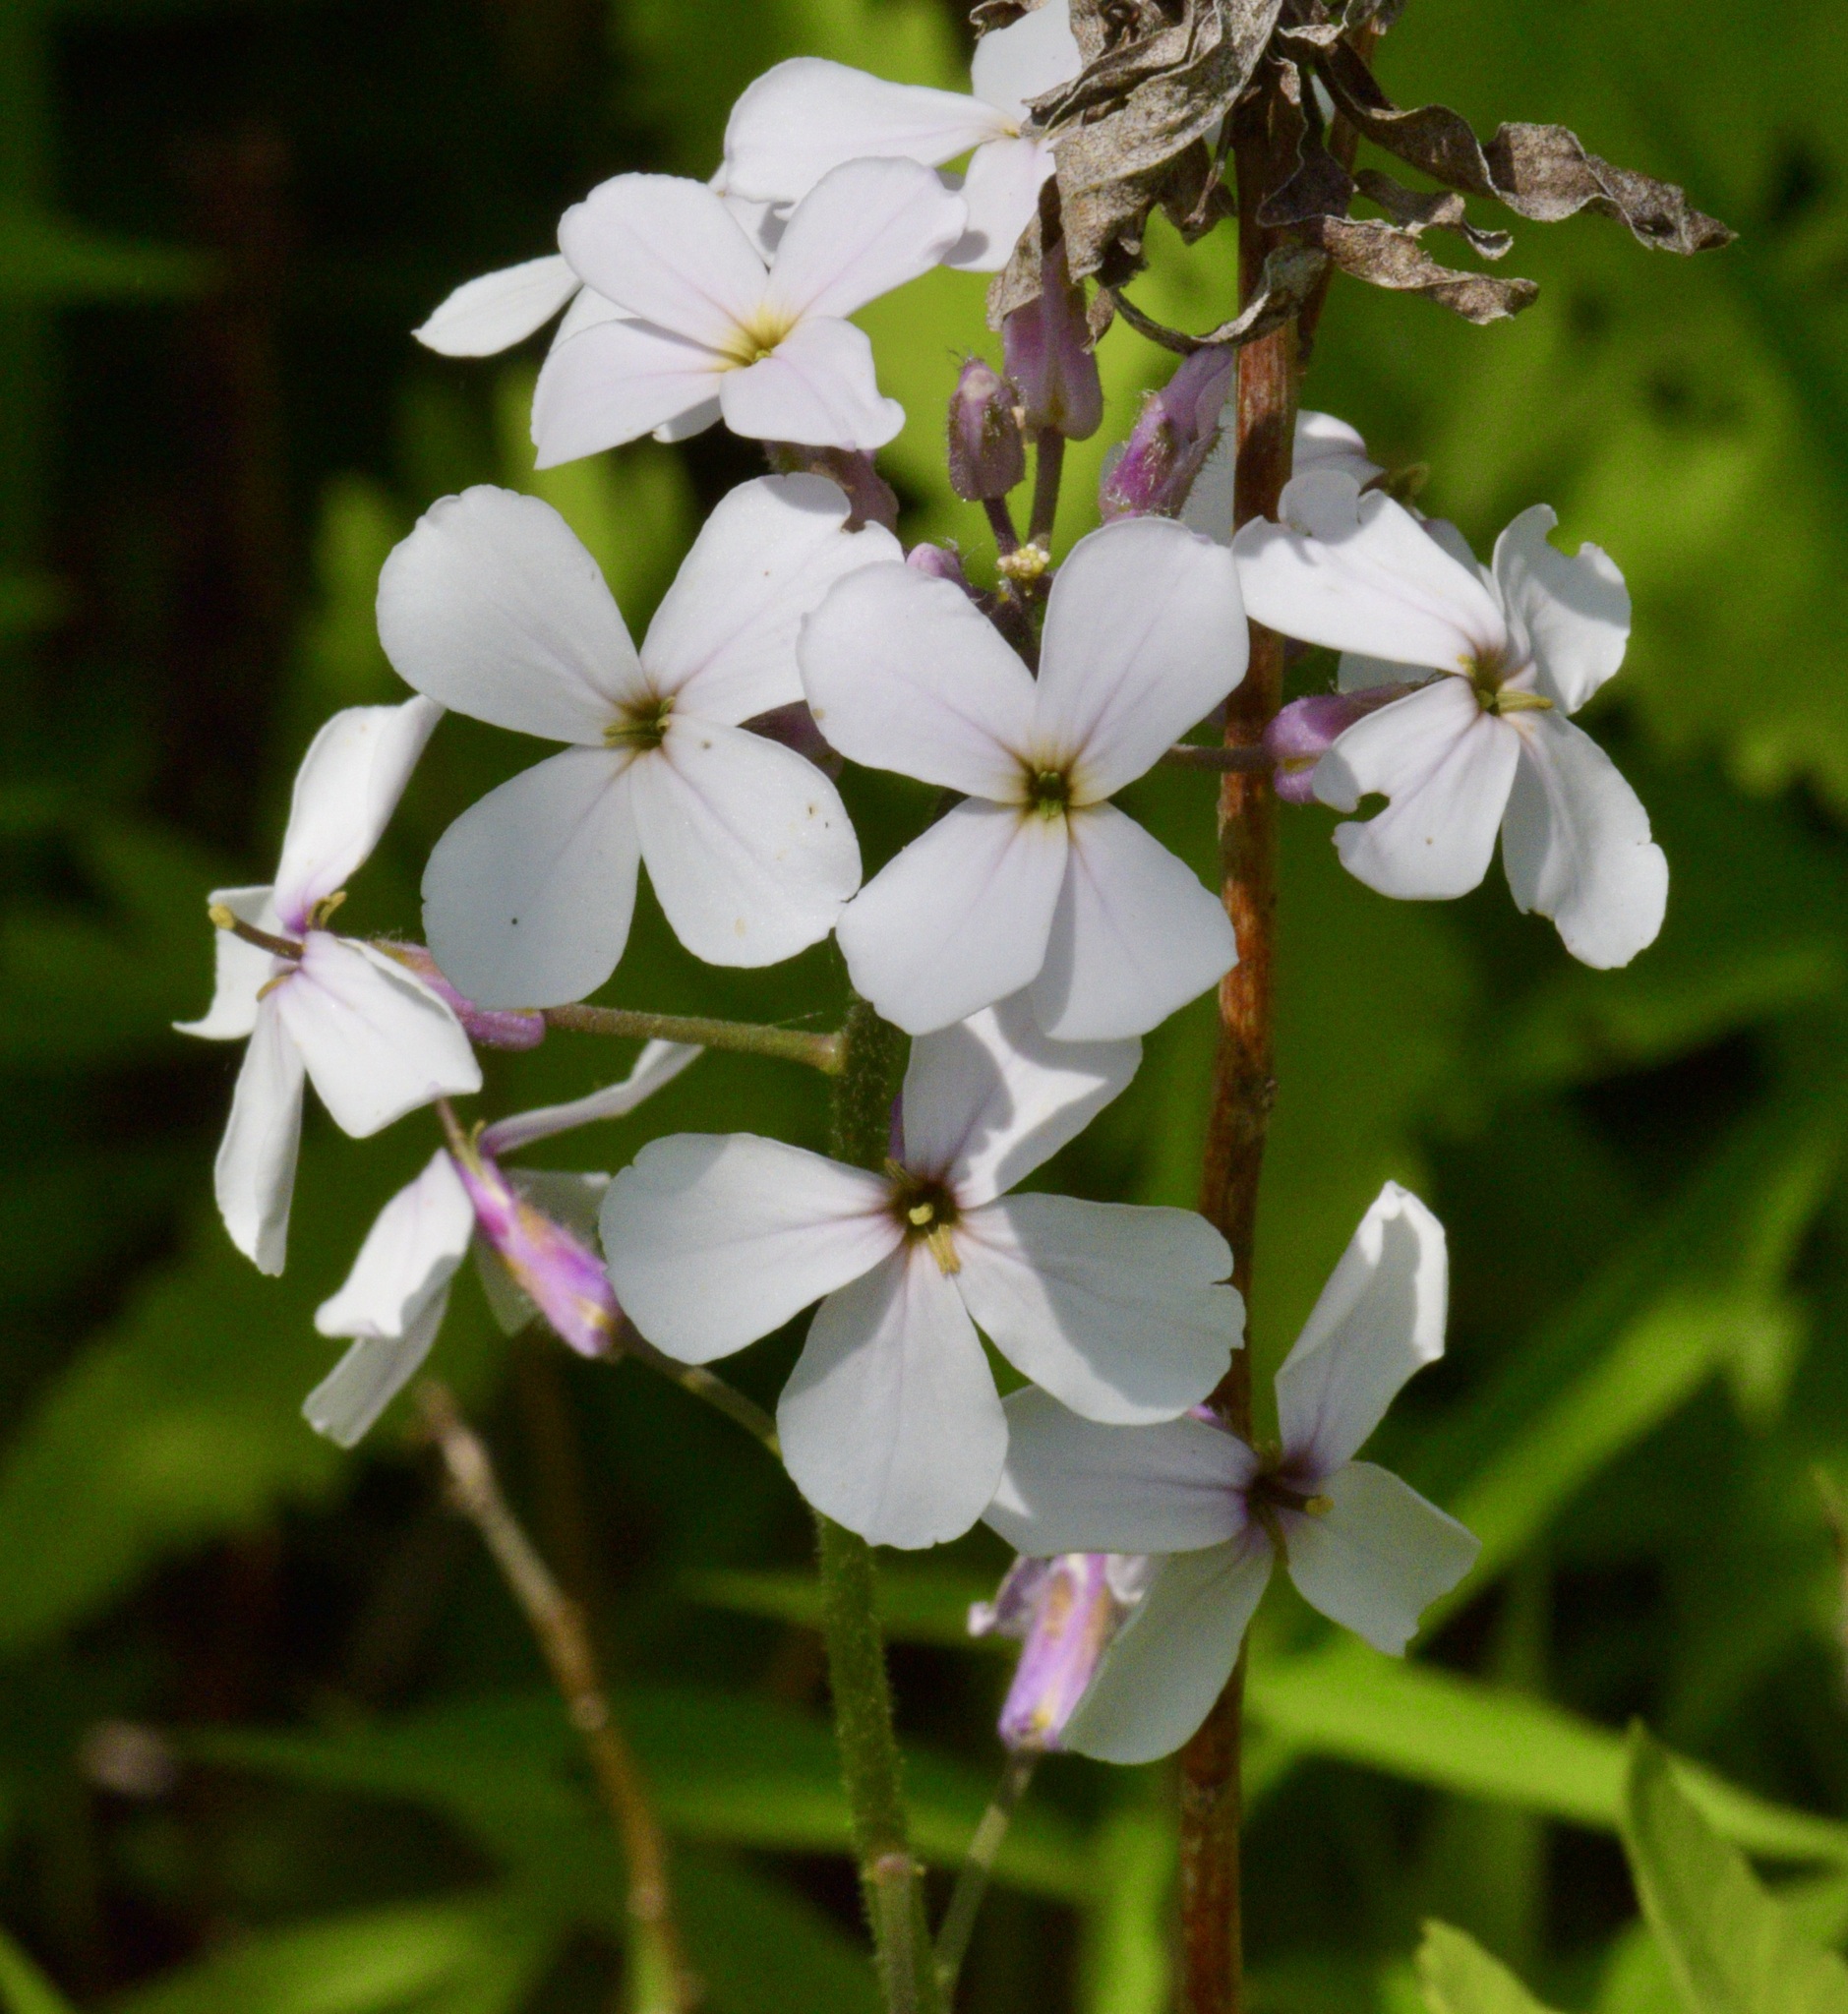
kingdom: Plantae
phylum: Tracheophyta
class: Magnoliopsida
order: Brassicales
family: Brassicaceae
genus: Hesperis
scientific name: Hesperis matronalis
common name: Dame's-violet
